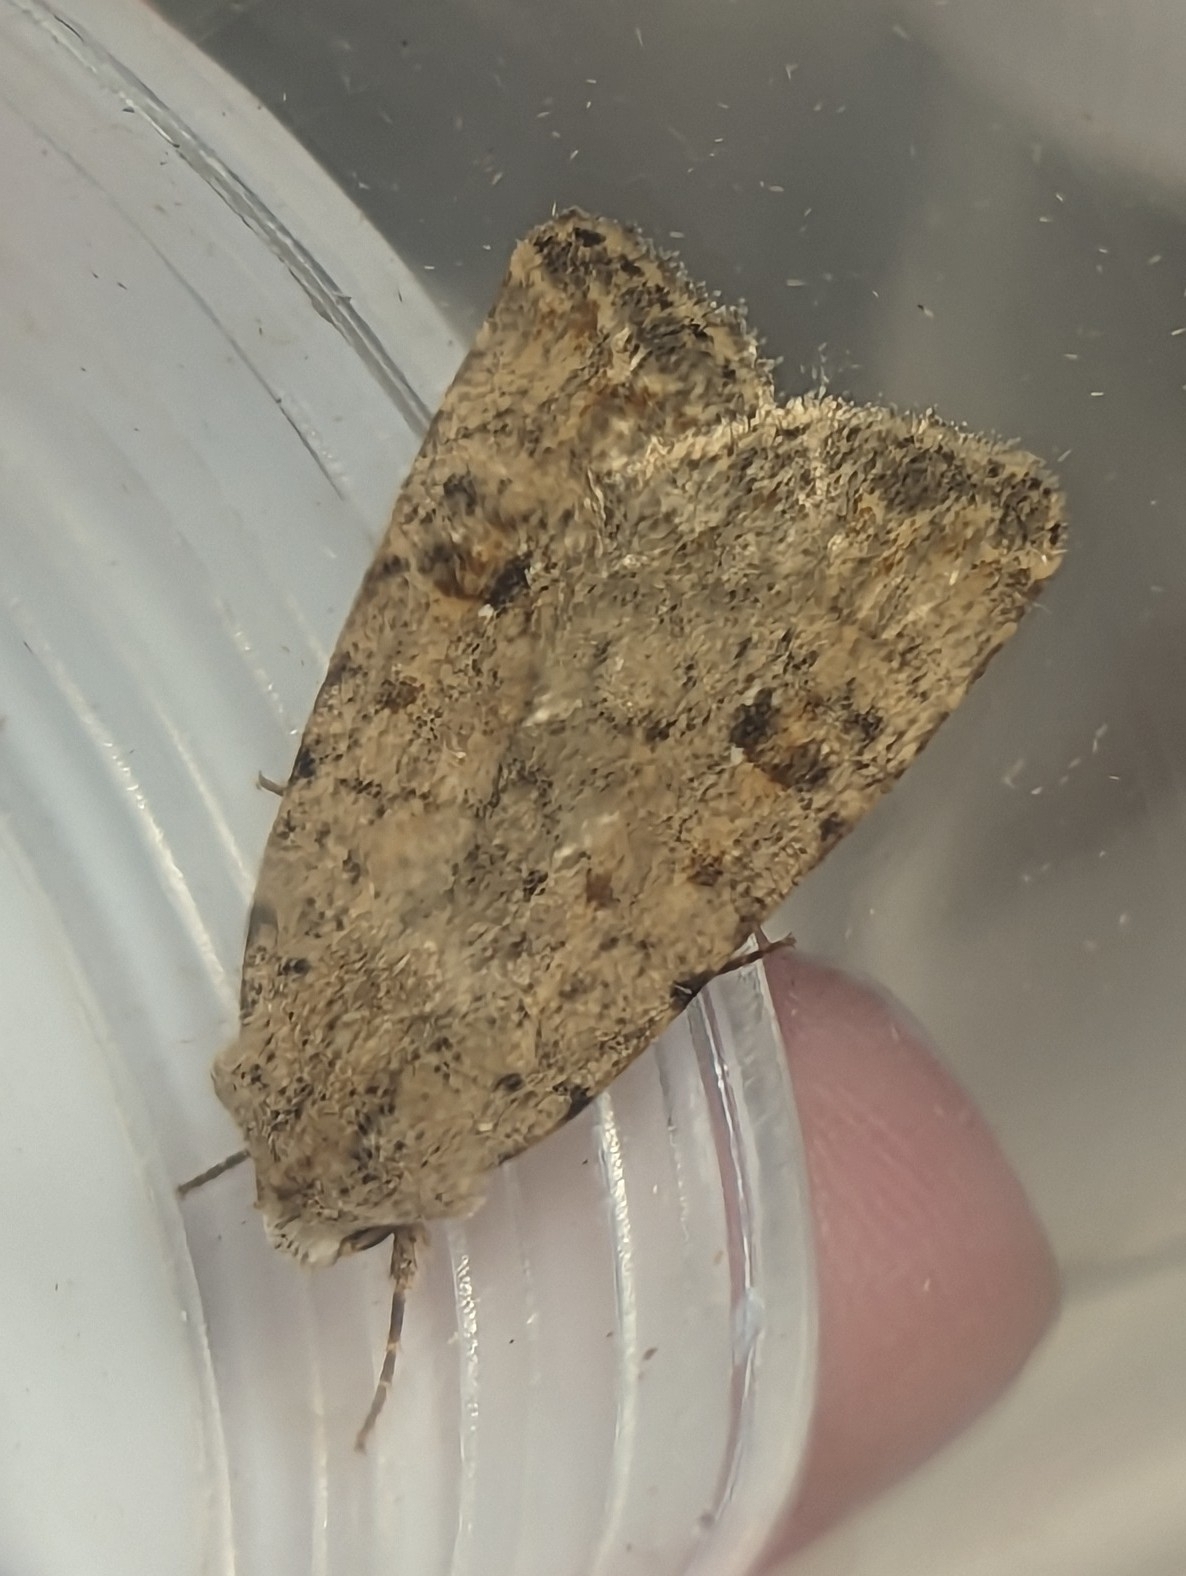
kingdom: Animalia
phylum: Arthropoda
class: Insecta
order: Lepidoptera
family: Noctuidae
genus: Caradrina
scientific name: Caradrina clavipalpis
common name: Pale mottled willow
